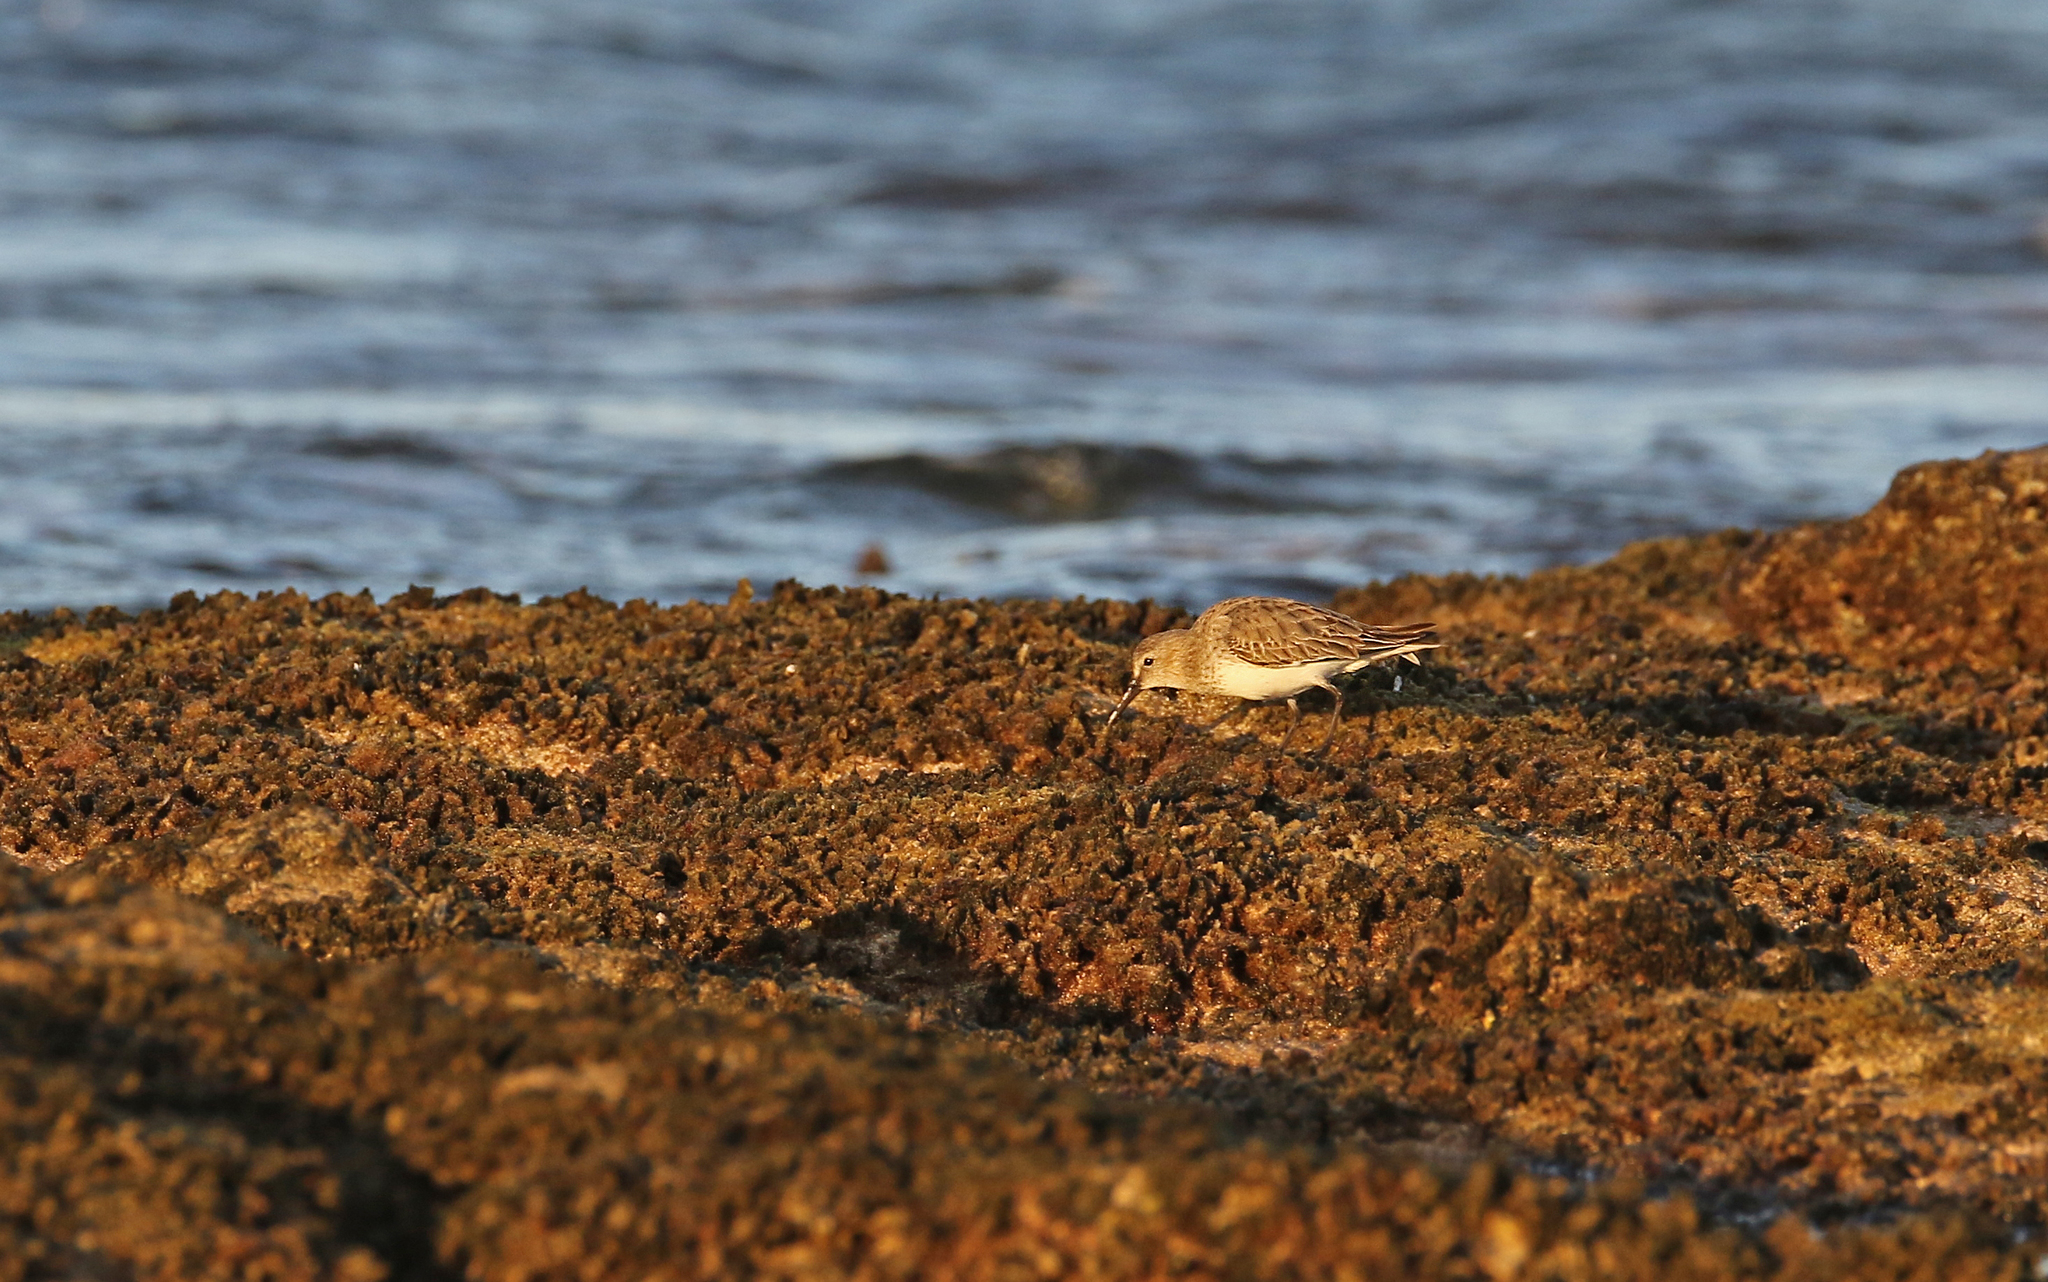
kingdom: Animalia
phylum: Chordata
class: Aves
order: Charadriiformes
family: Scolopacidae
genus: Calidris
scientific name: Calidris alpina
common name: Dunlin
